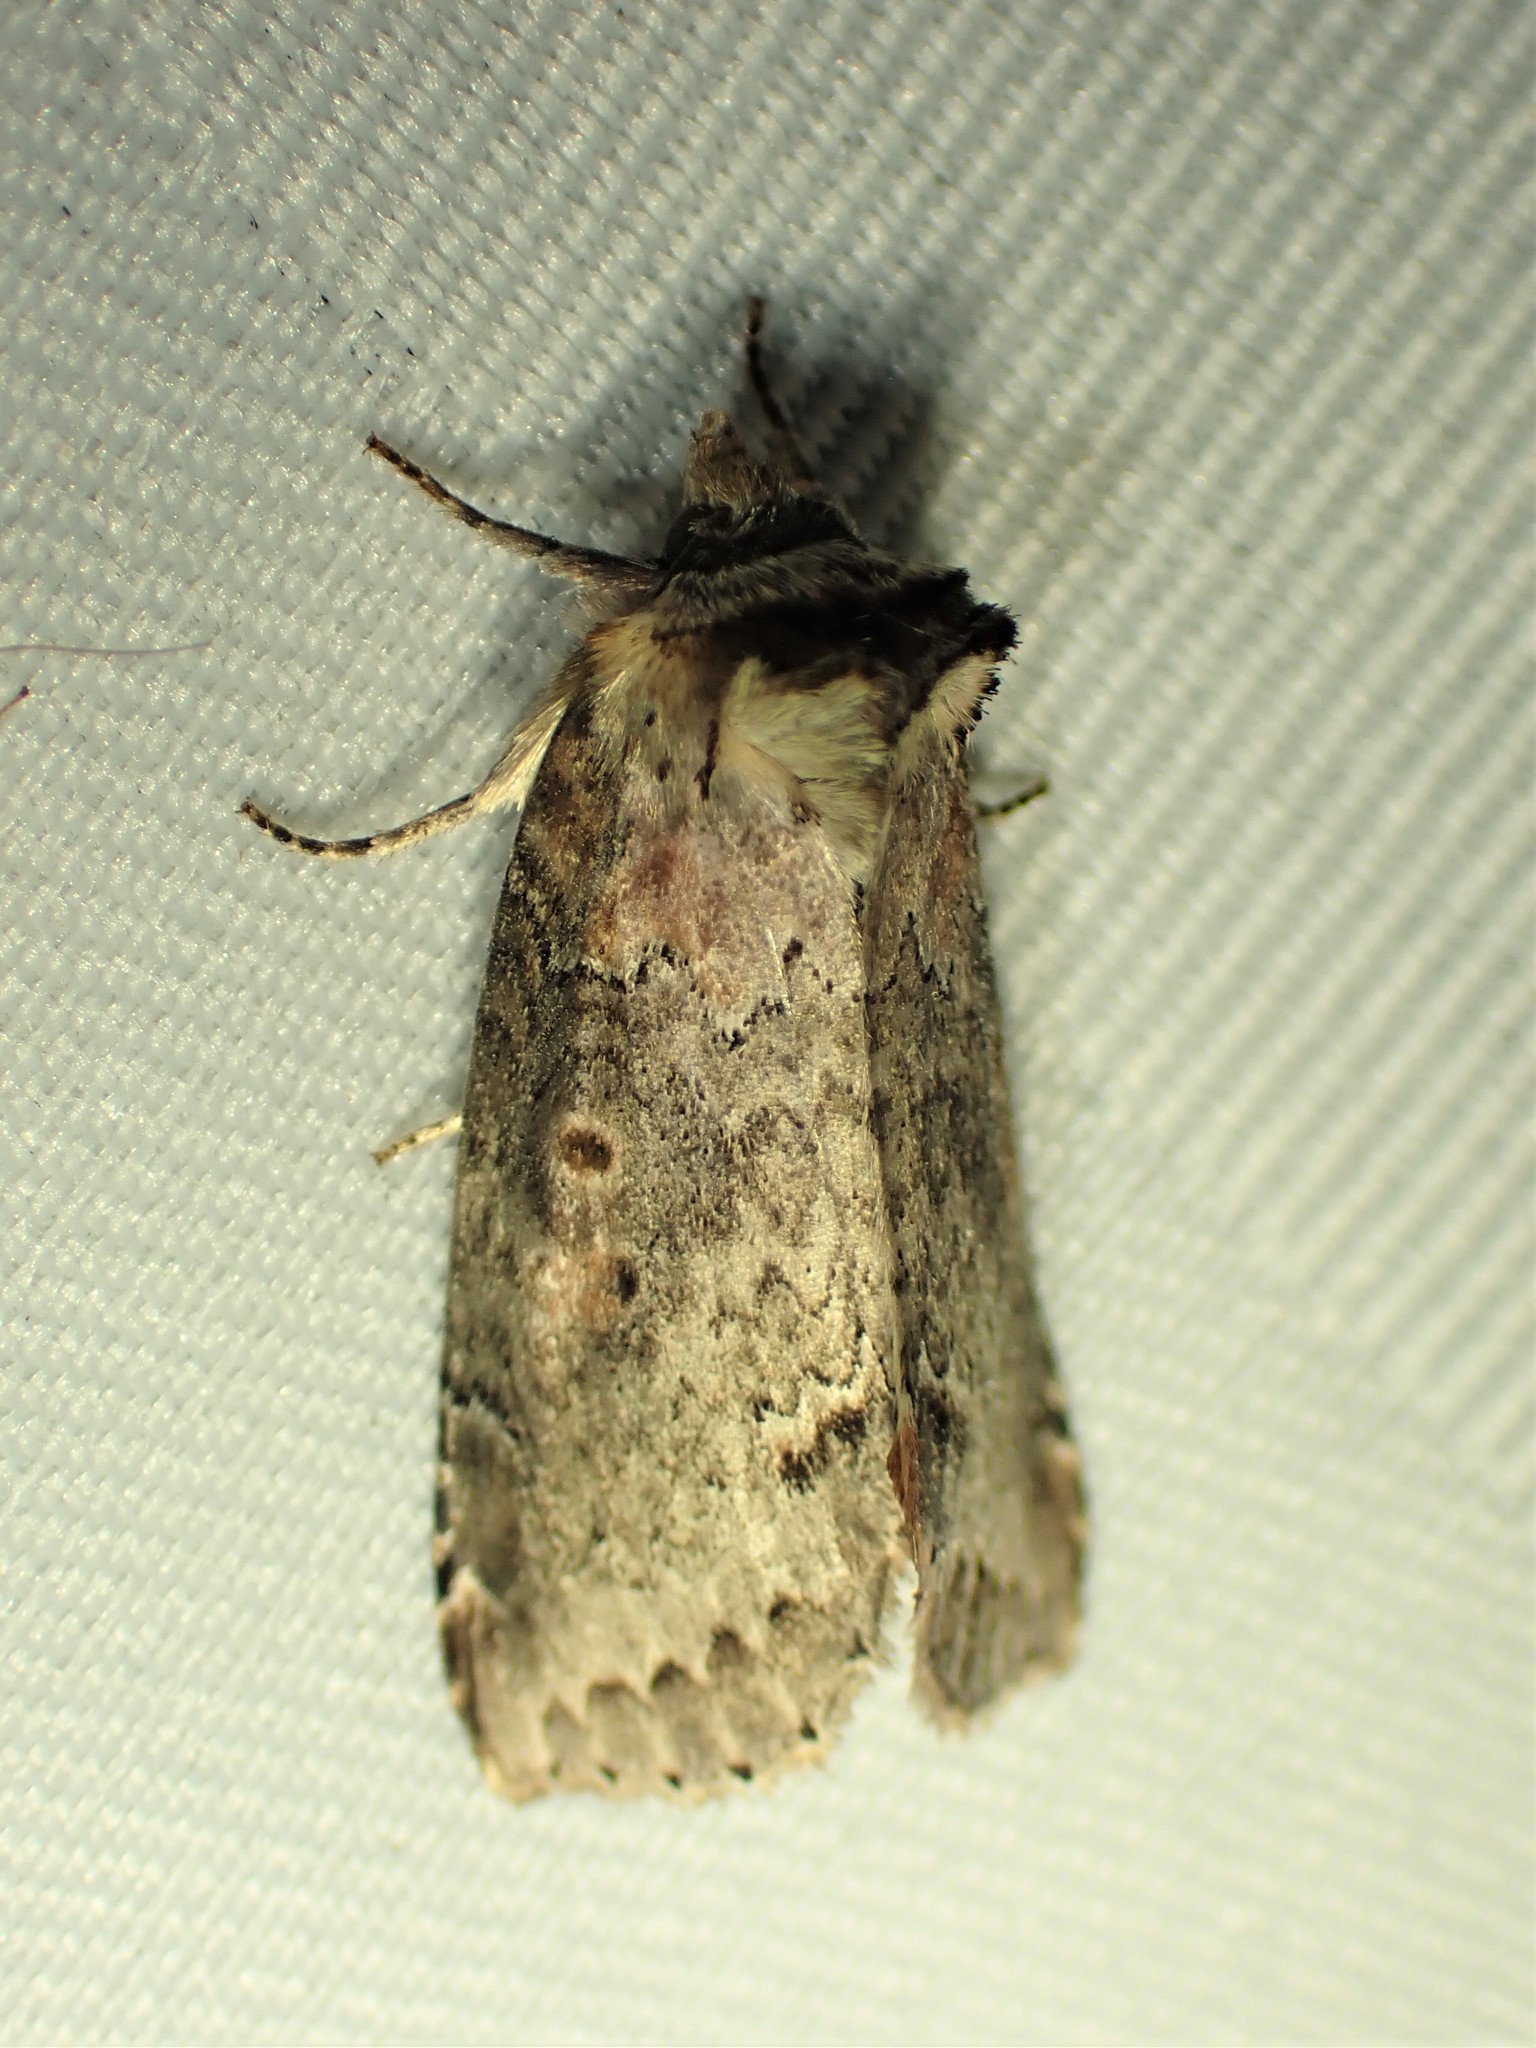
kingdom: Animalia
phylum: Arthropoda
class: Insecta
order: Lepidoptera
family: Drepanidae
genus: Pseudothyatira
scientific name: Pseudothyatira cymatophoroides
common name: Tufted thyatirid moth
